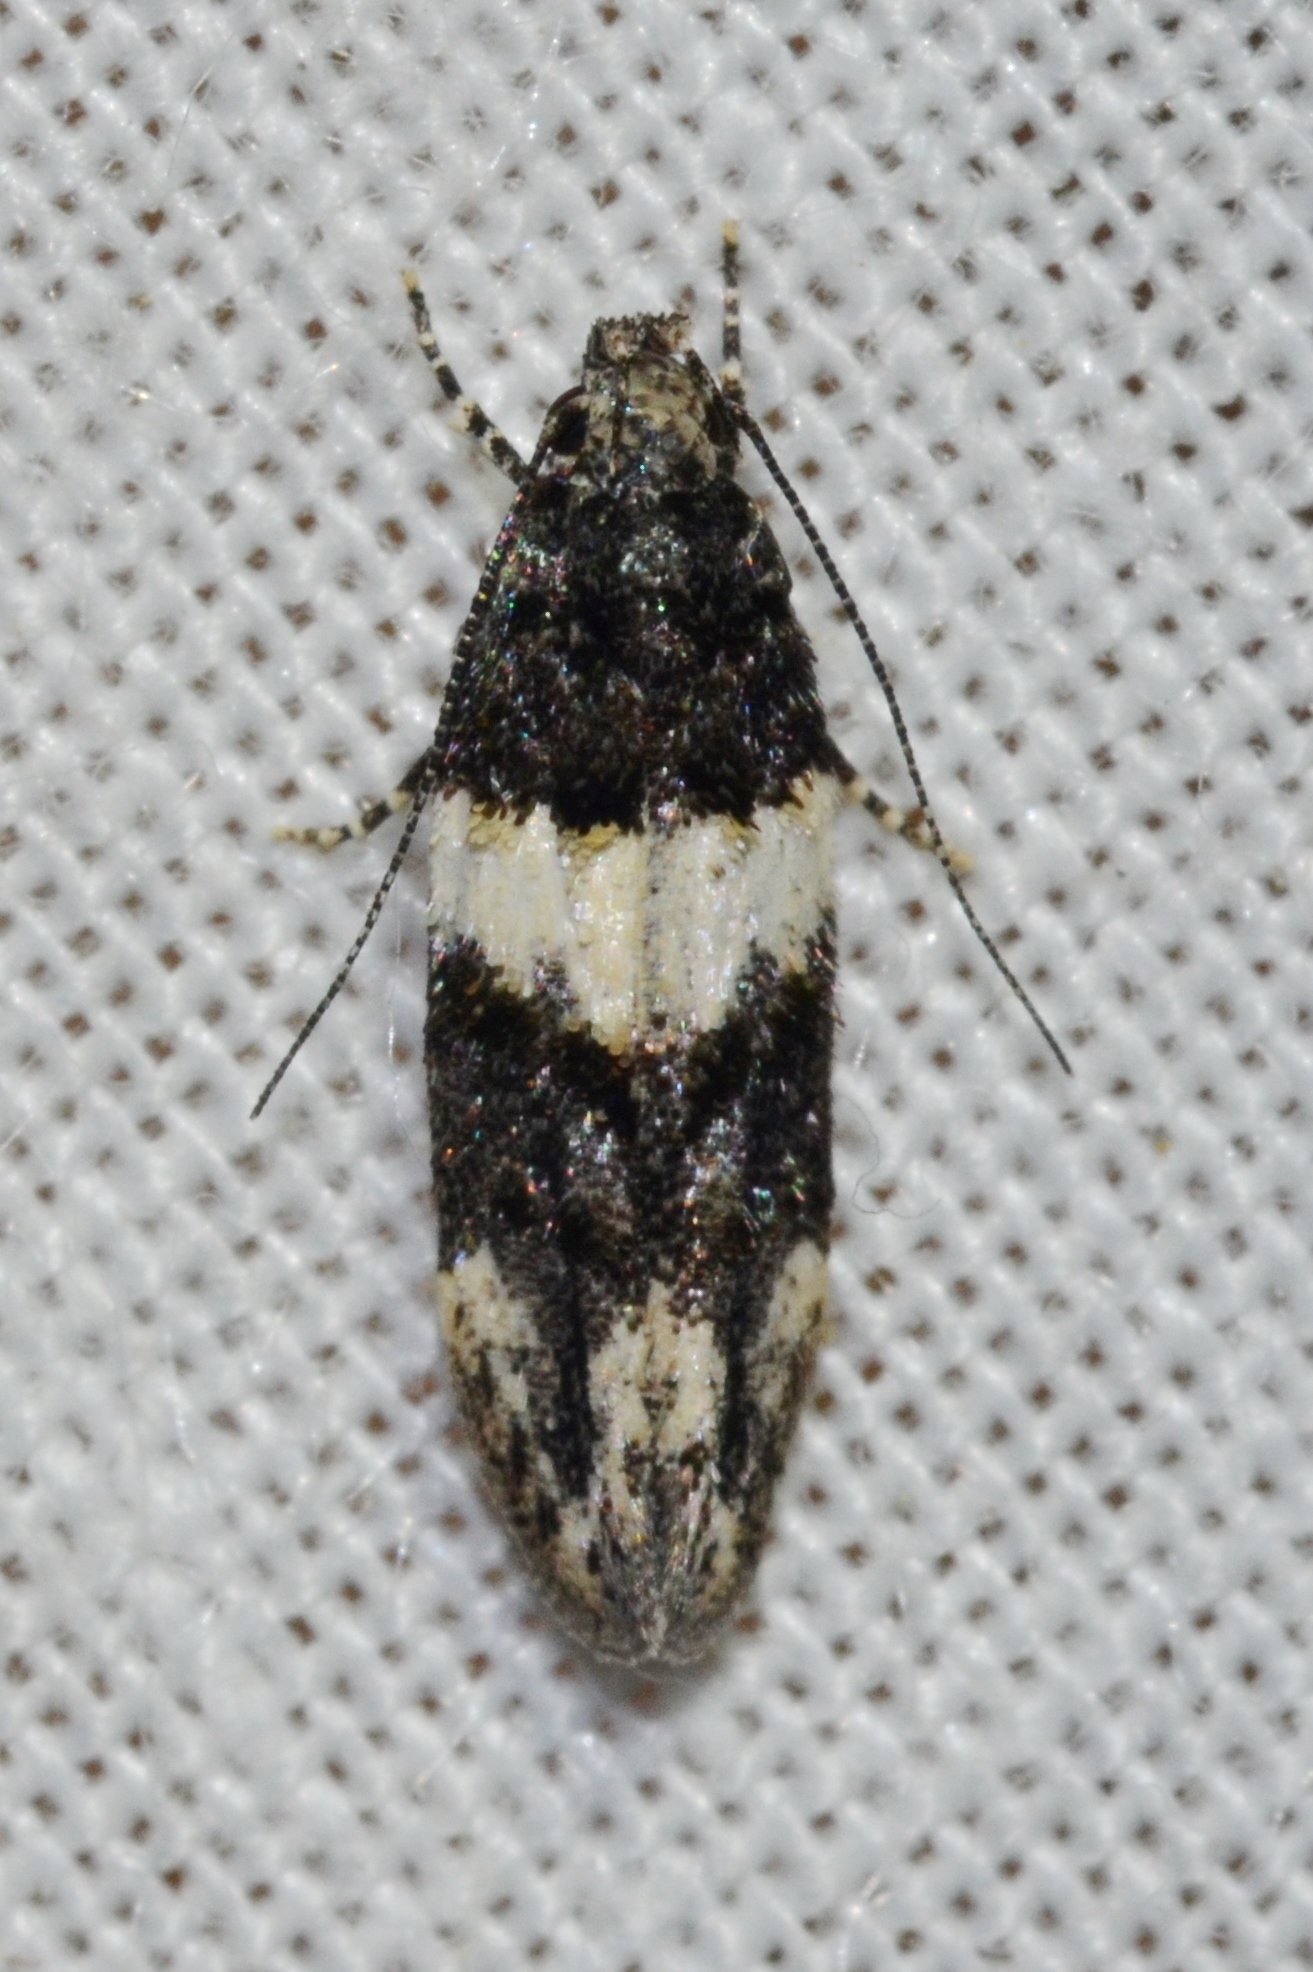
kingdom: Animalia
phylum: Arthropoda
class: Insecta
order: Lepidoptera
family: Gelechiidae
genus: Pubitelphusa
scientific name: Pubitelphusa latifasciella
